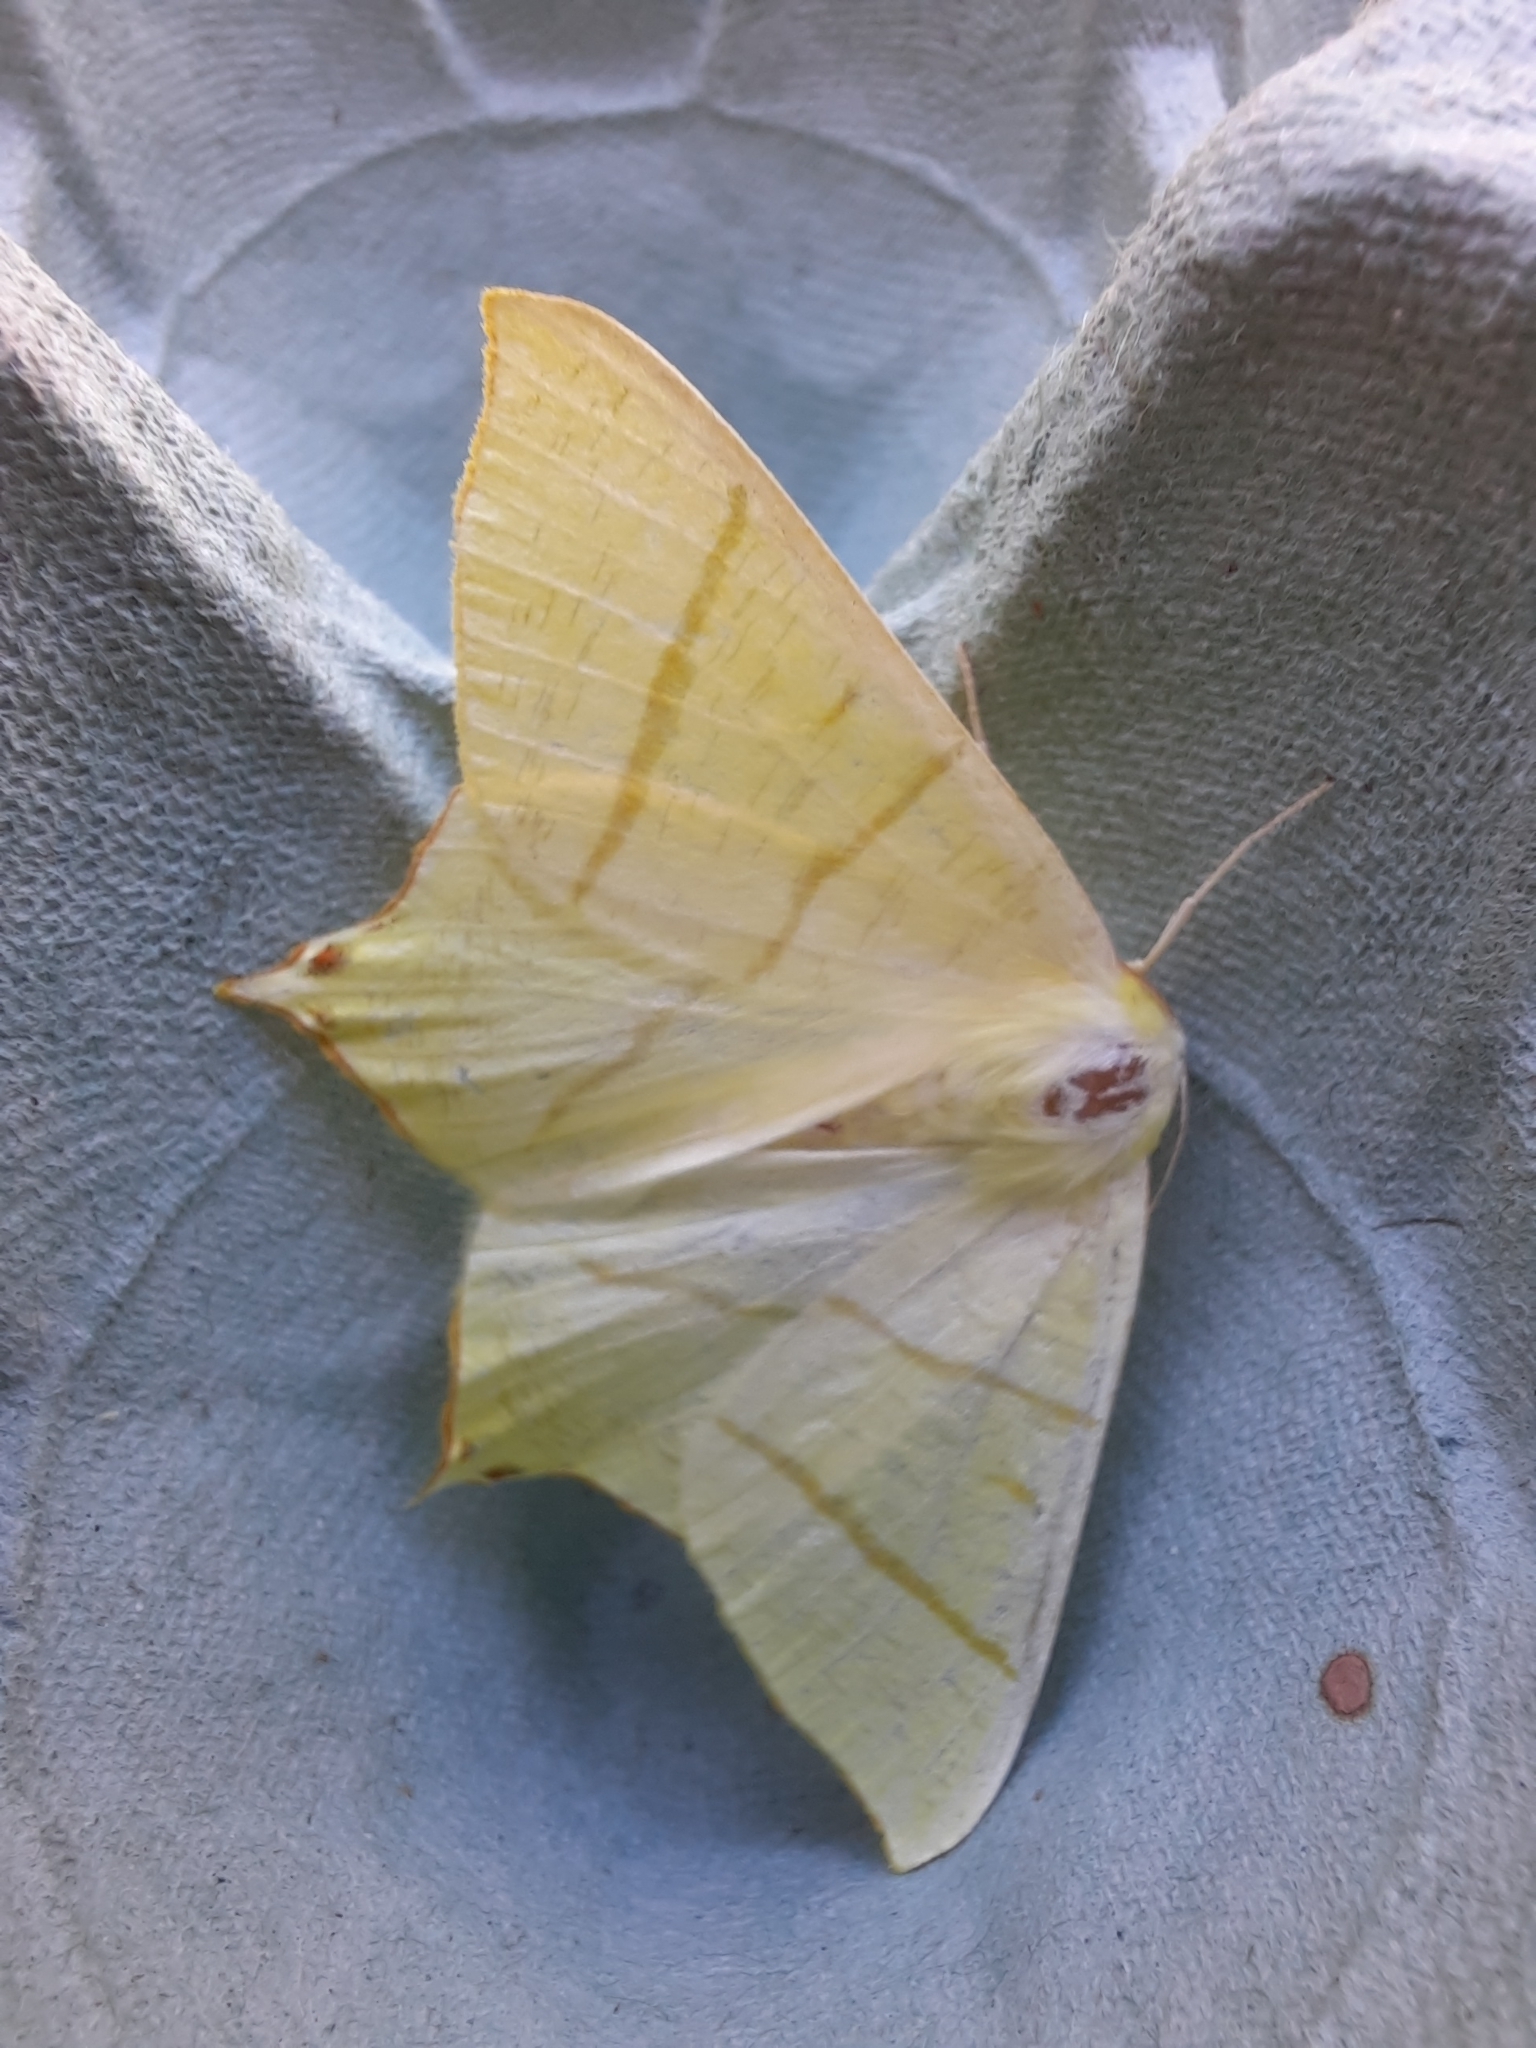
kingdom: Animalia
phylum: Arthropoda
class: Insecta
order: Lepidoptera
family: Geometridae
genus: Ourapteryx
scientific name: Ourapteryx sambucaria
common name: Swallow-tailed moth
